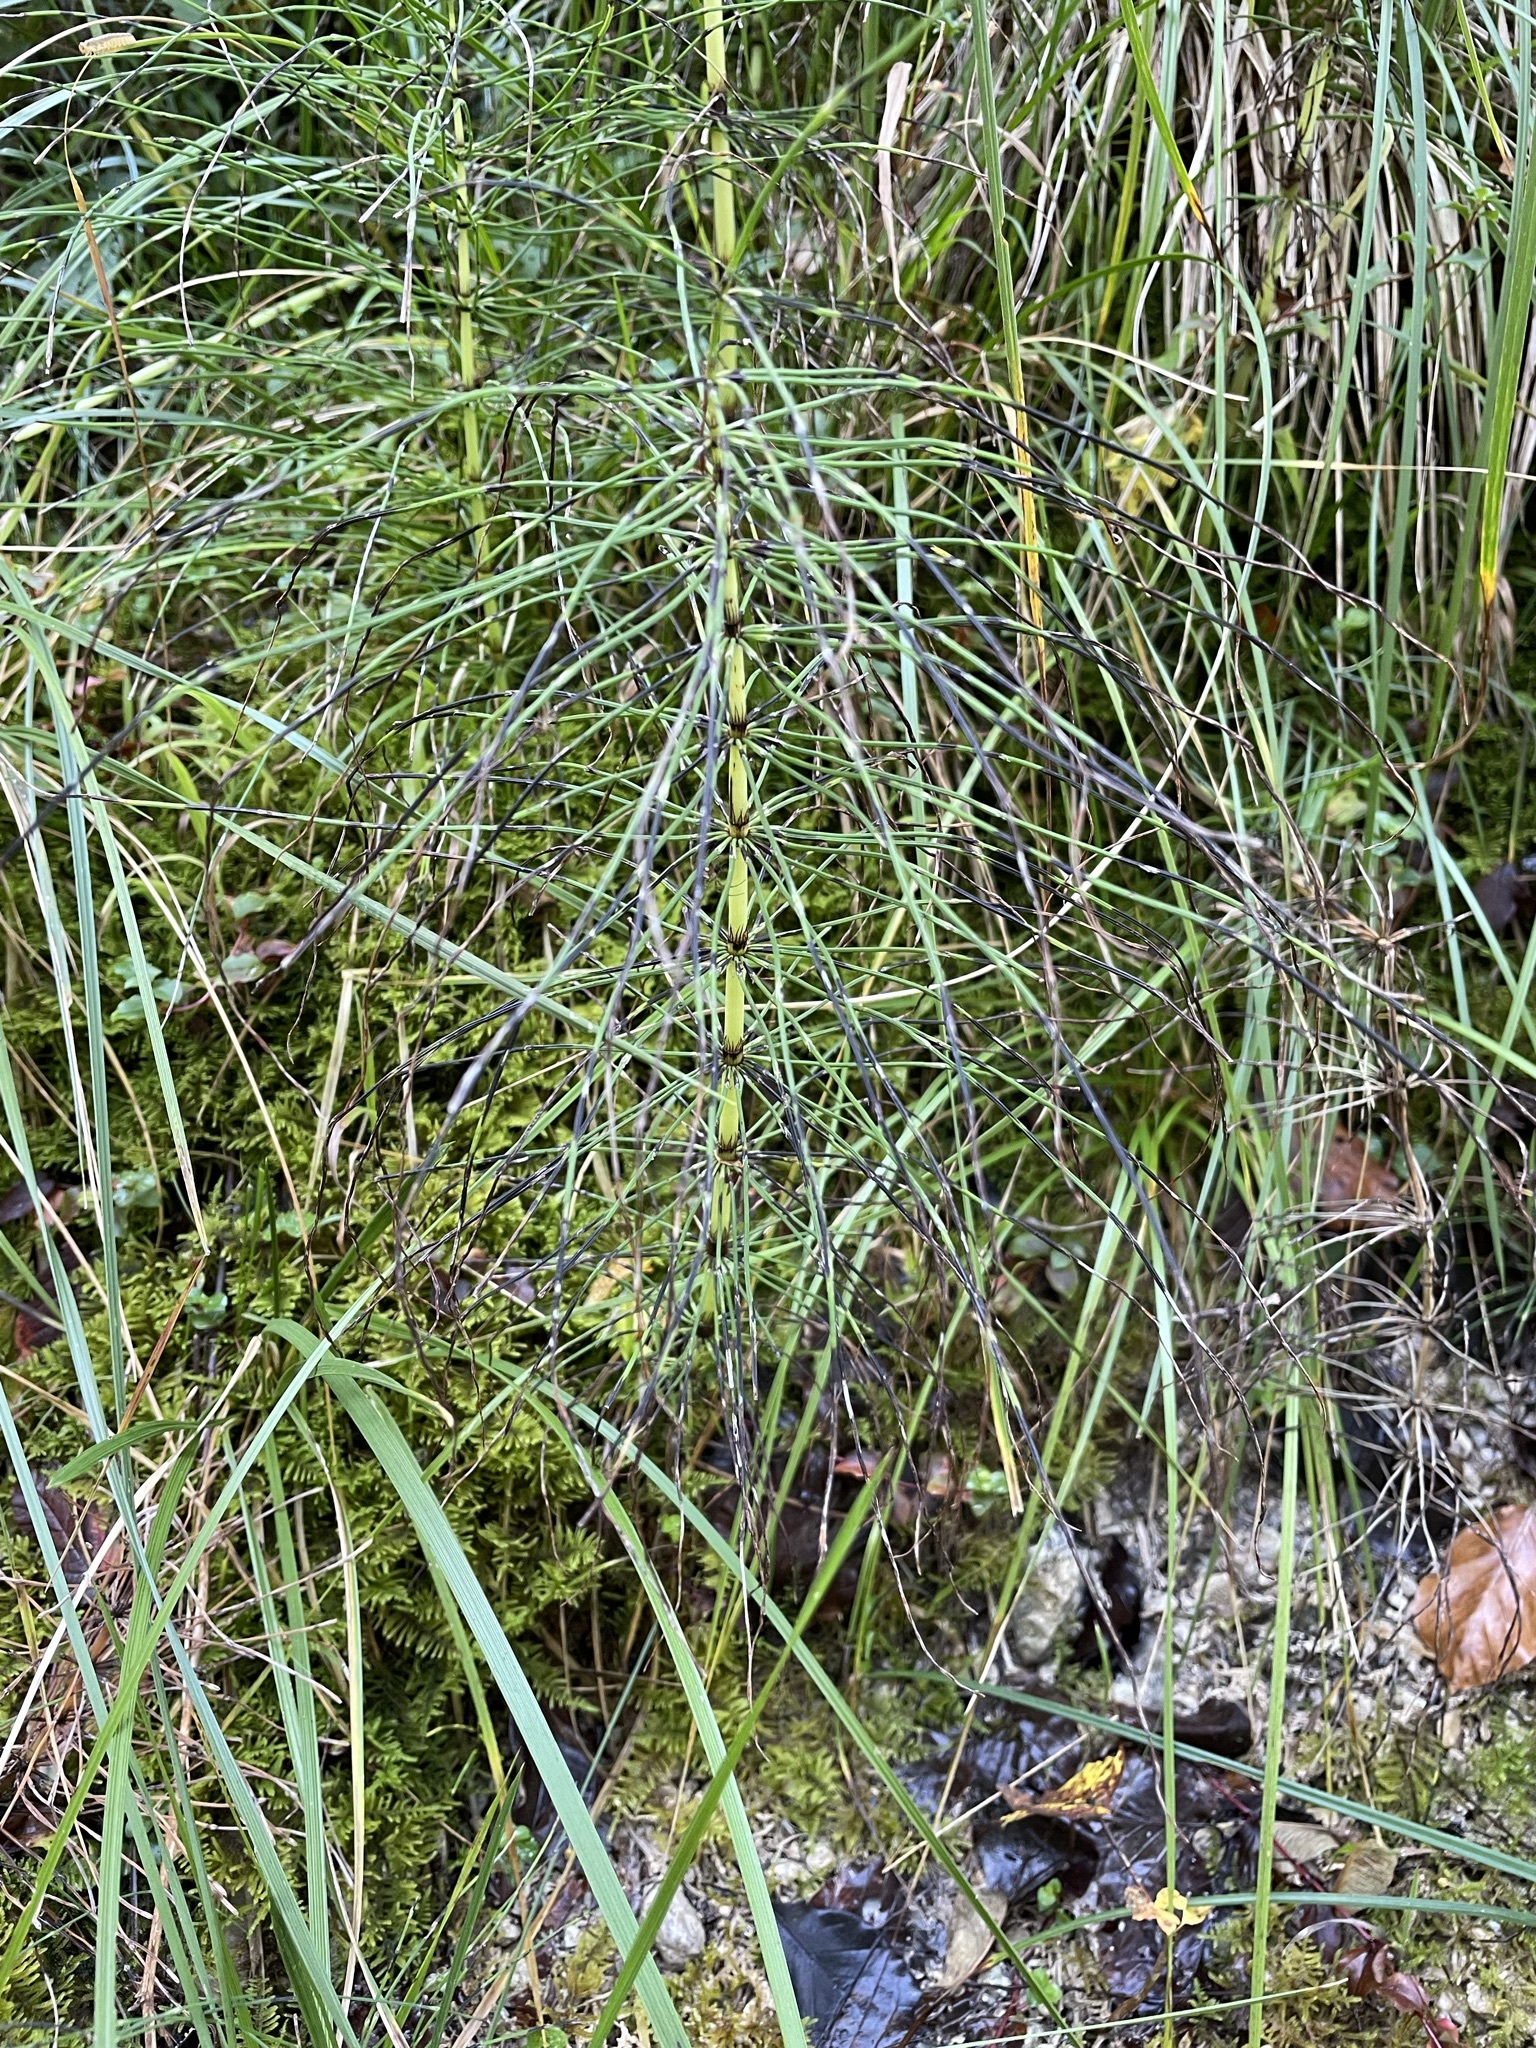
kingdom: Plantae
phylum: Tracheophyta
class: Polypodiopsida
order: Equisetales
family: Equisetaceae
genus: Equisetum
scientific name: Equisetum telmateia
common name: Great horsetail
